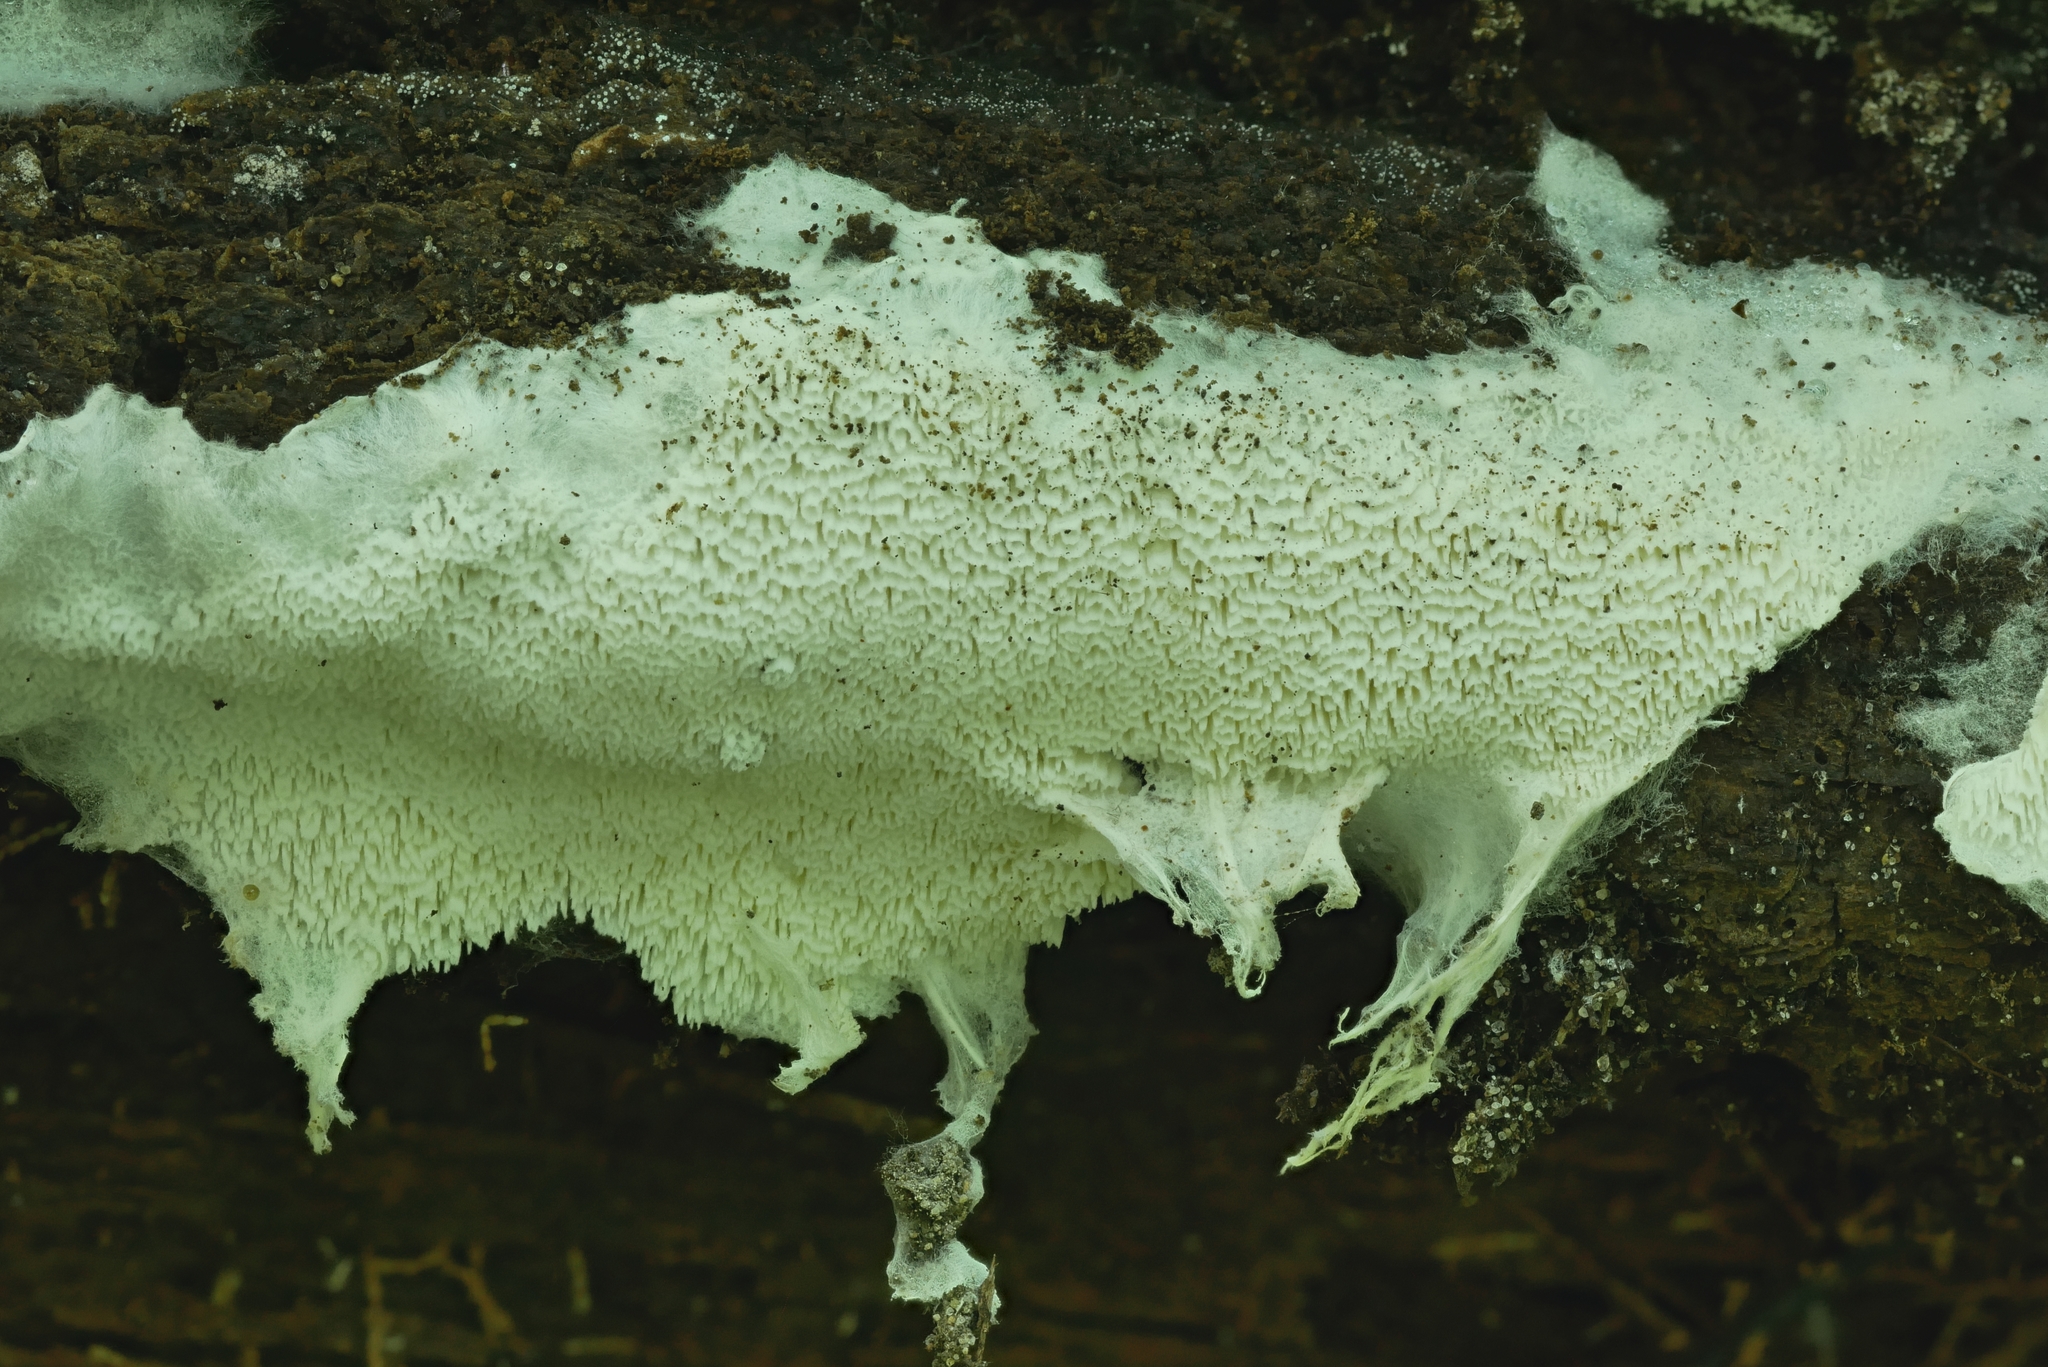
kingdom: Fungi
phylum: Basidiomycota
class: Agaricomycetes
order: Trechisporales
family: Sistotremataceae
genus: Trechispora
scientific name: Trechispora mollusca
